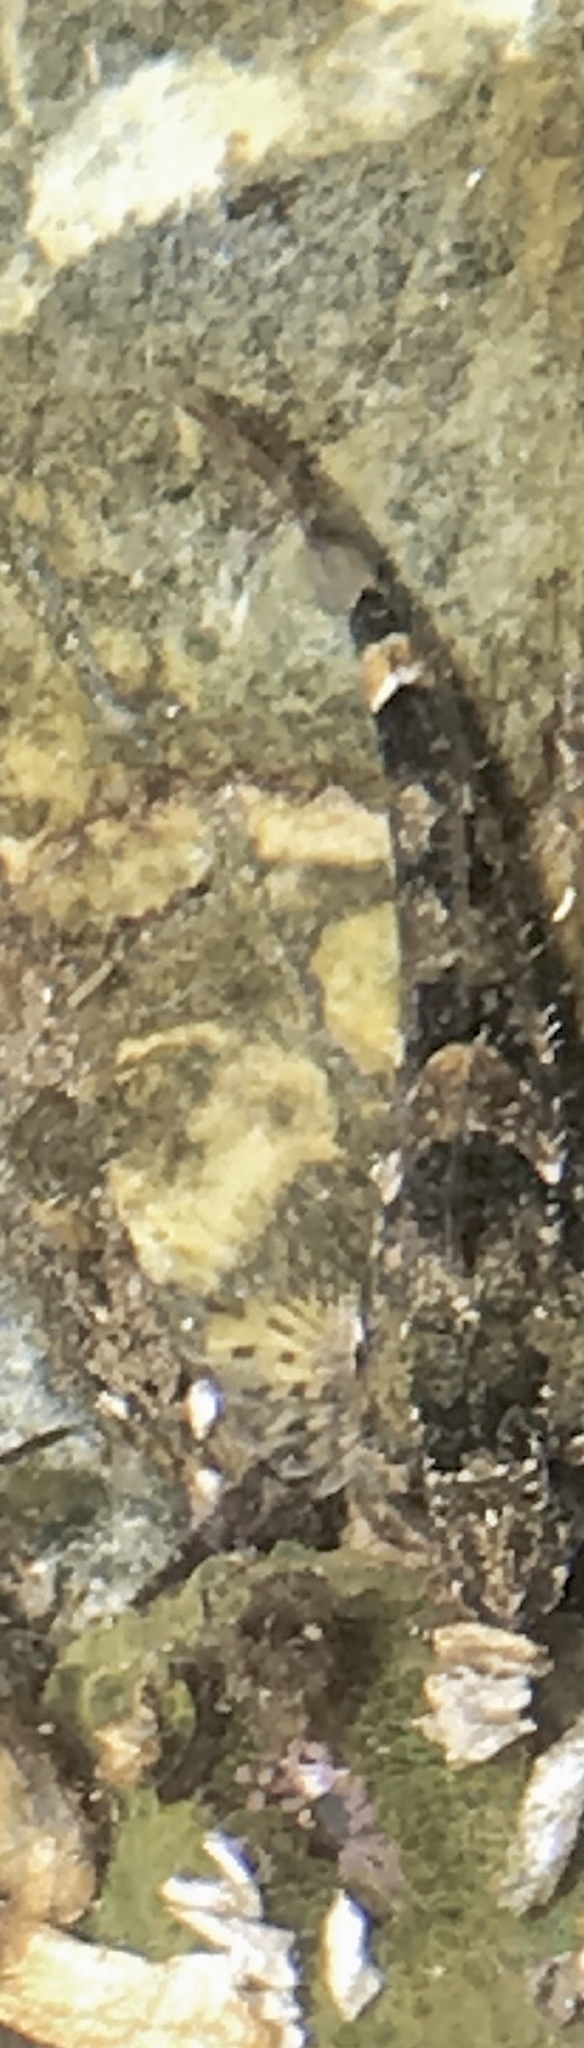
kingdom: Animalia
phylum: Chordata
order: Scorpaeniformes
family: Cottidae
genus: Oligocottus
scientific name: Oligocottus maculosus
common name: Tidepool sculpin
